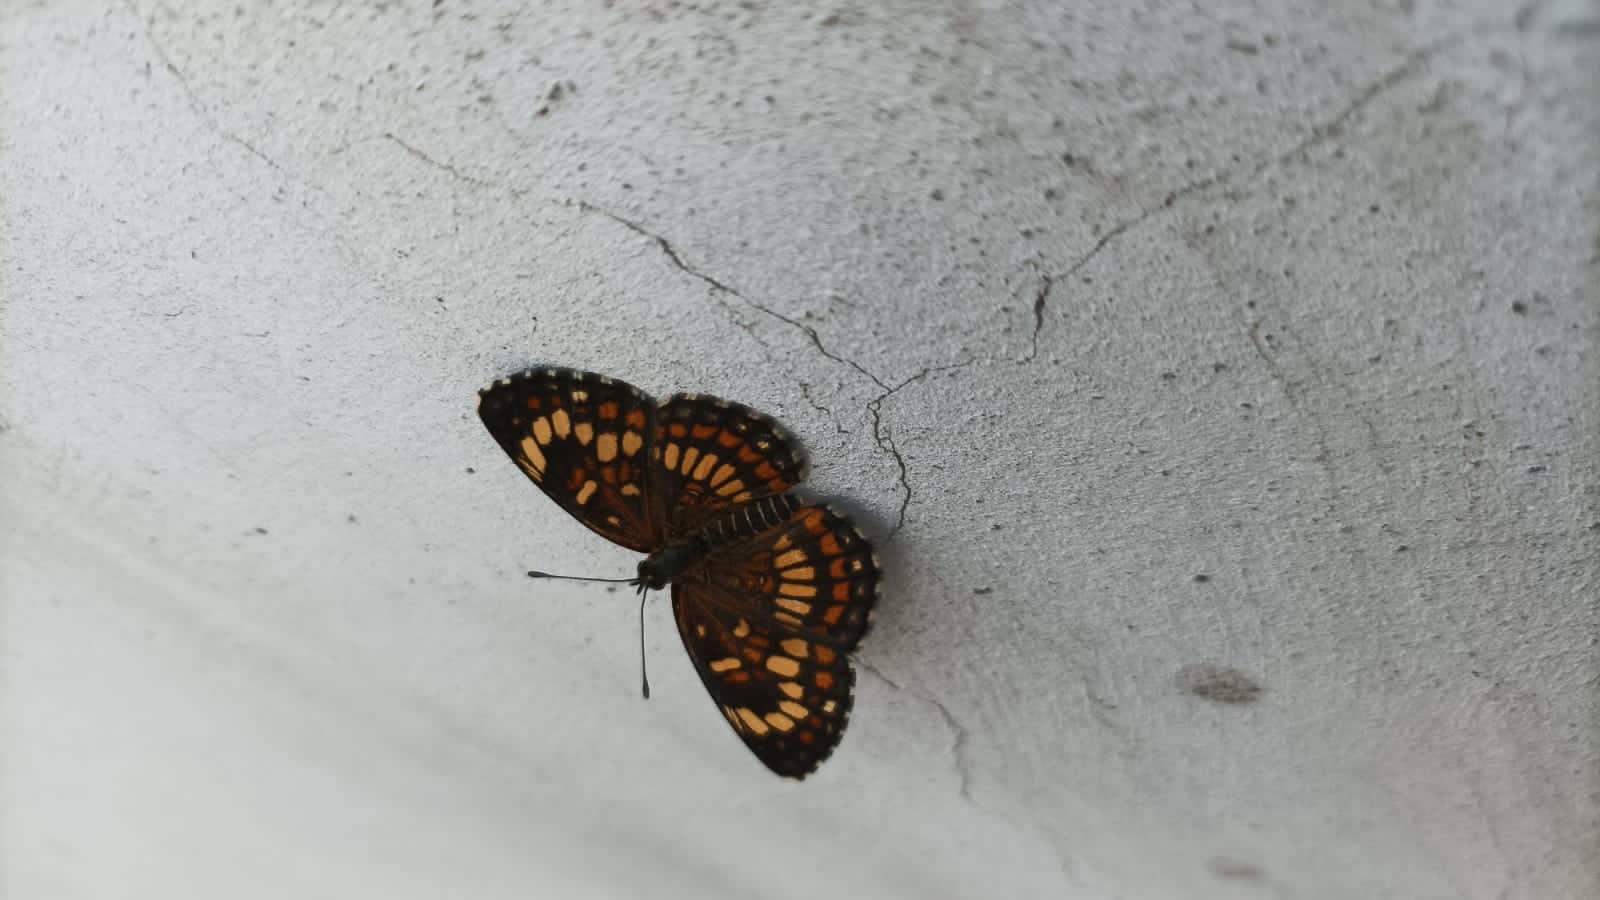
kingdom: Animalia
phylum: Arthropoda
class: Insecta
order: Lepidoptera
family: Nymphalidae
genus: Thessalia
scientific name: Thessalia theona
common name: Nymphalid moth
